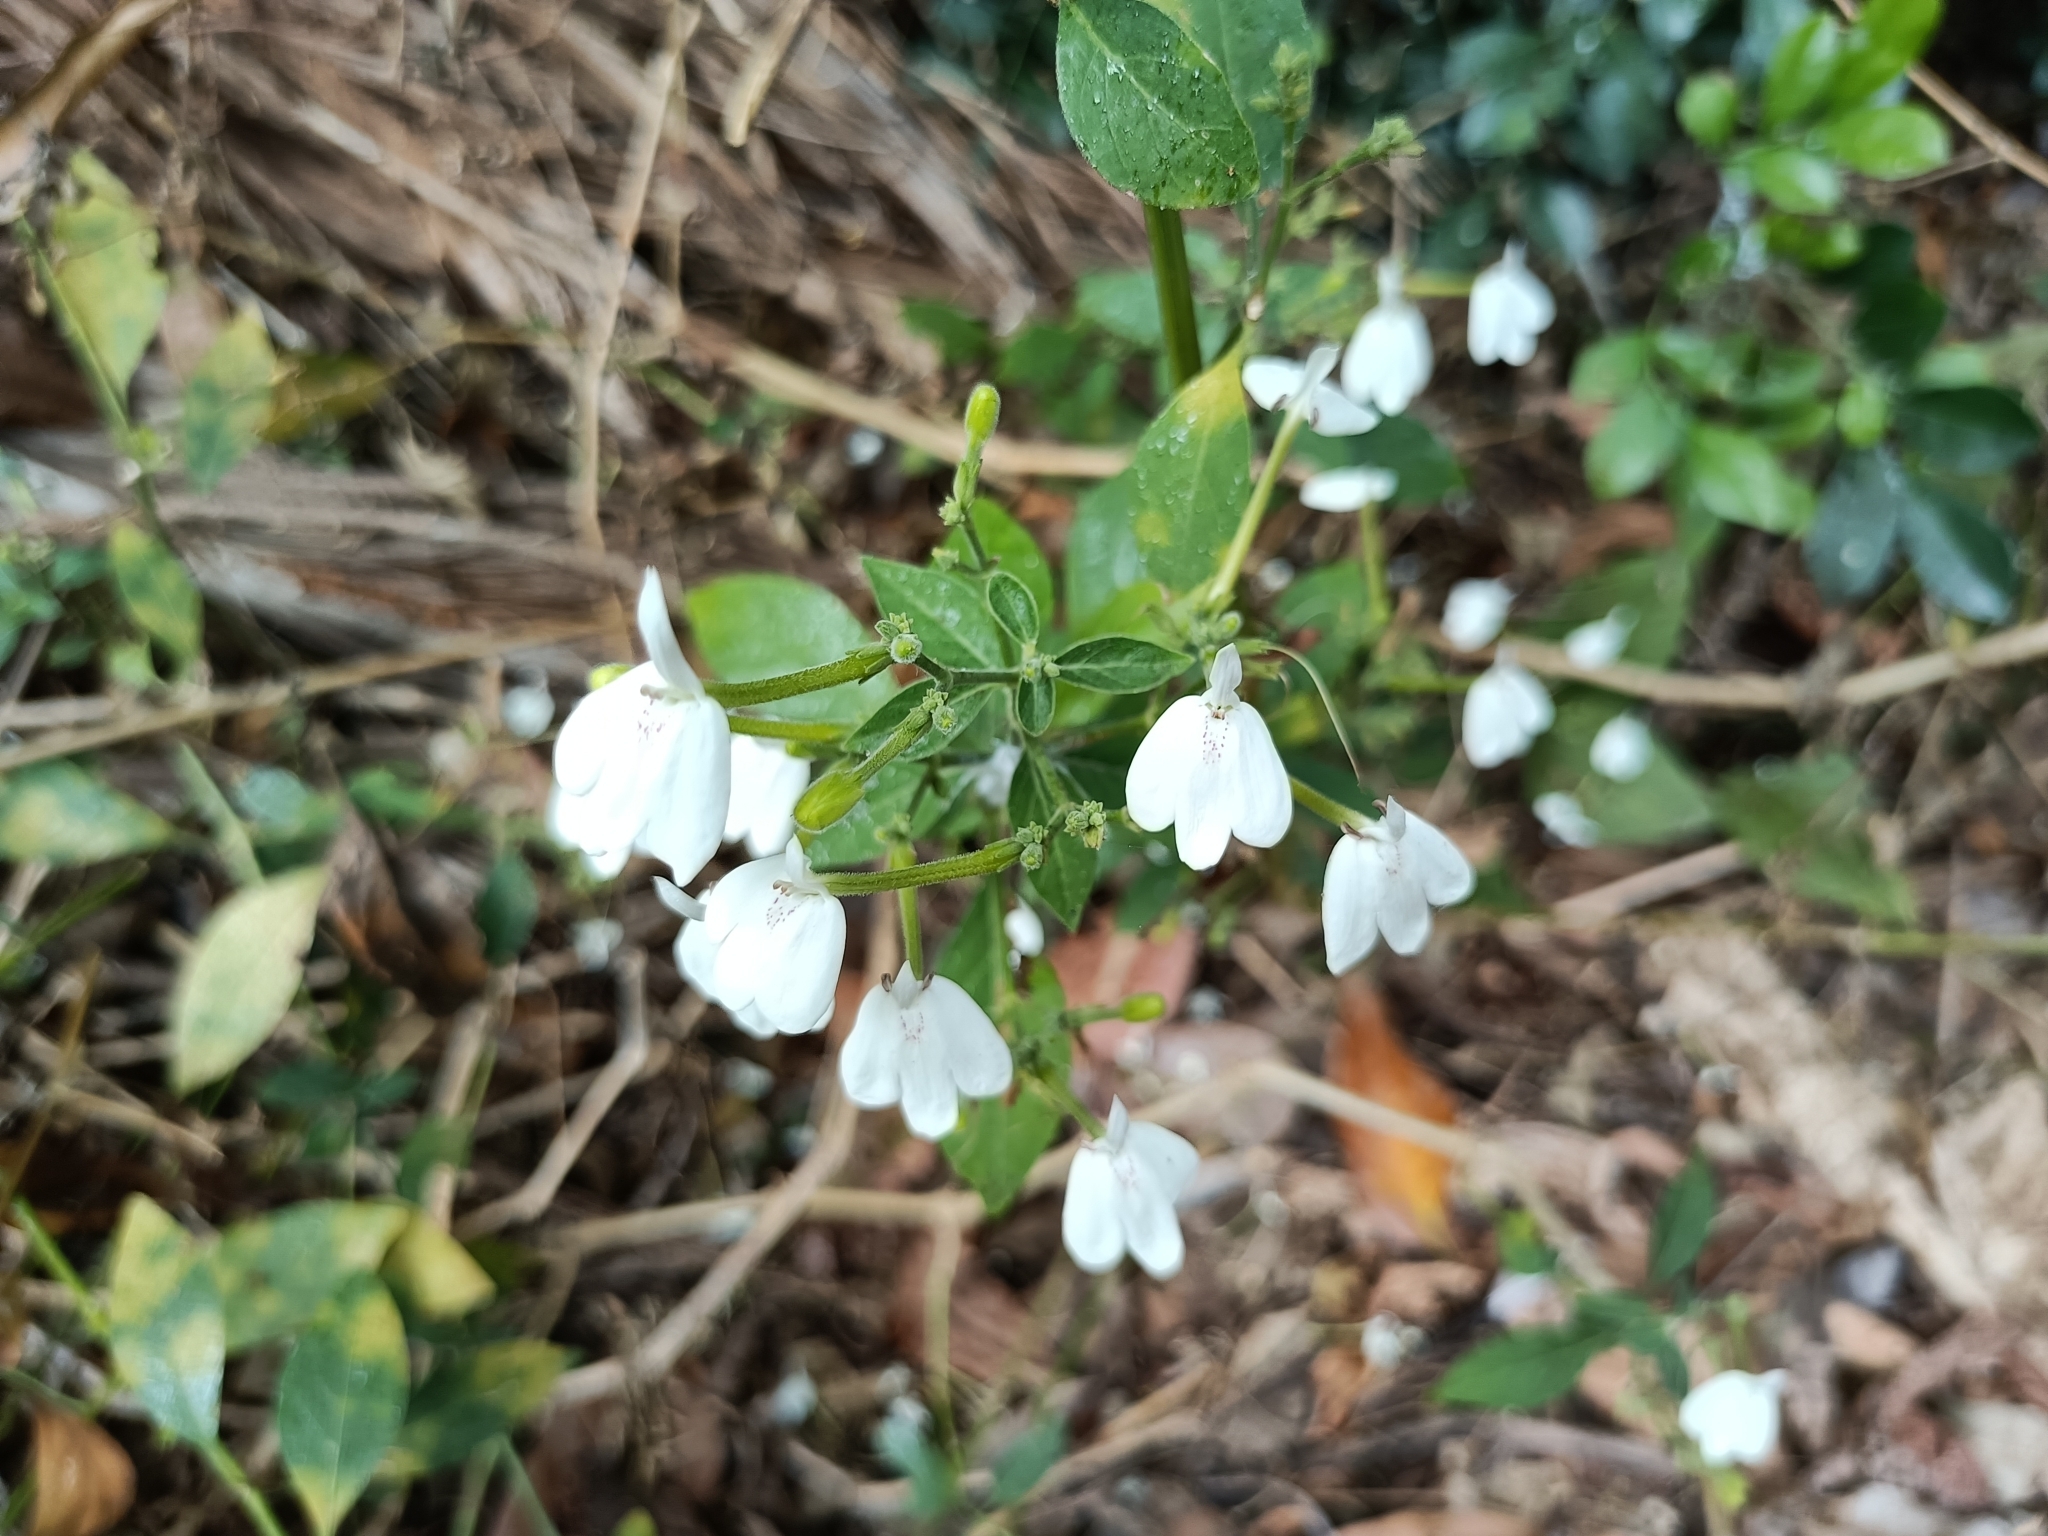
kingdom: Plantae
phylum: Tracheophyta
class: Magnoliopsida
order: Lamiales
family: Acanthaceae
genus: Rhinacanthus
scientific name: Rhinacanthus nasutus
